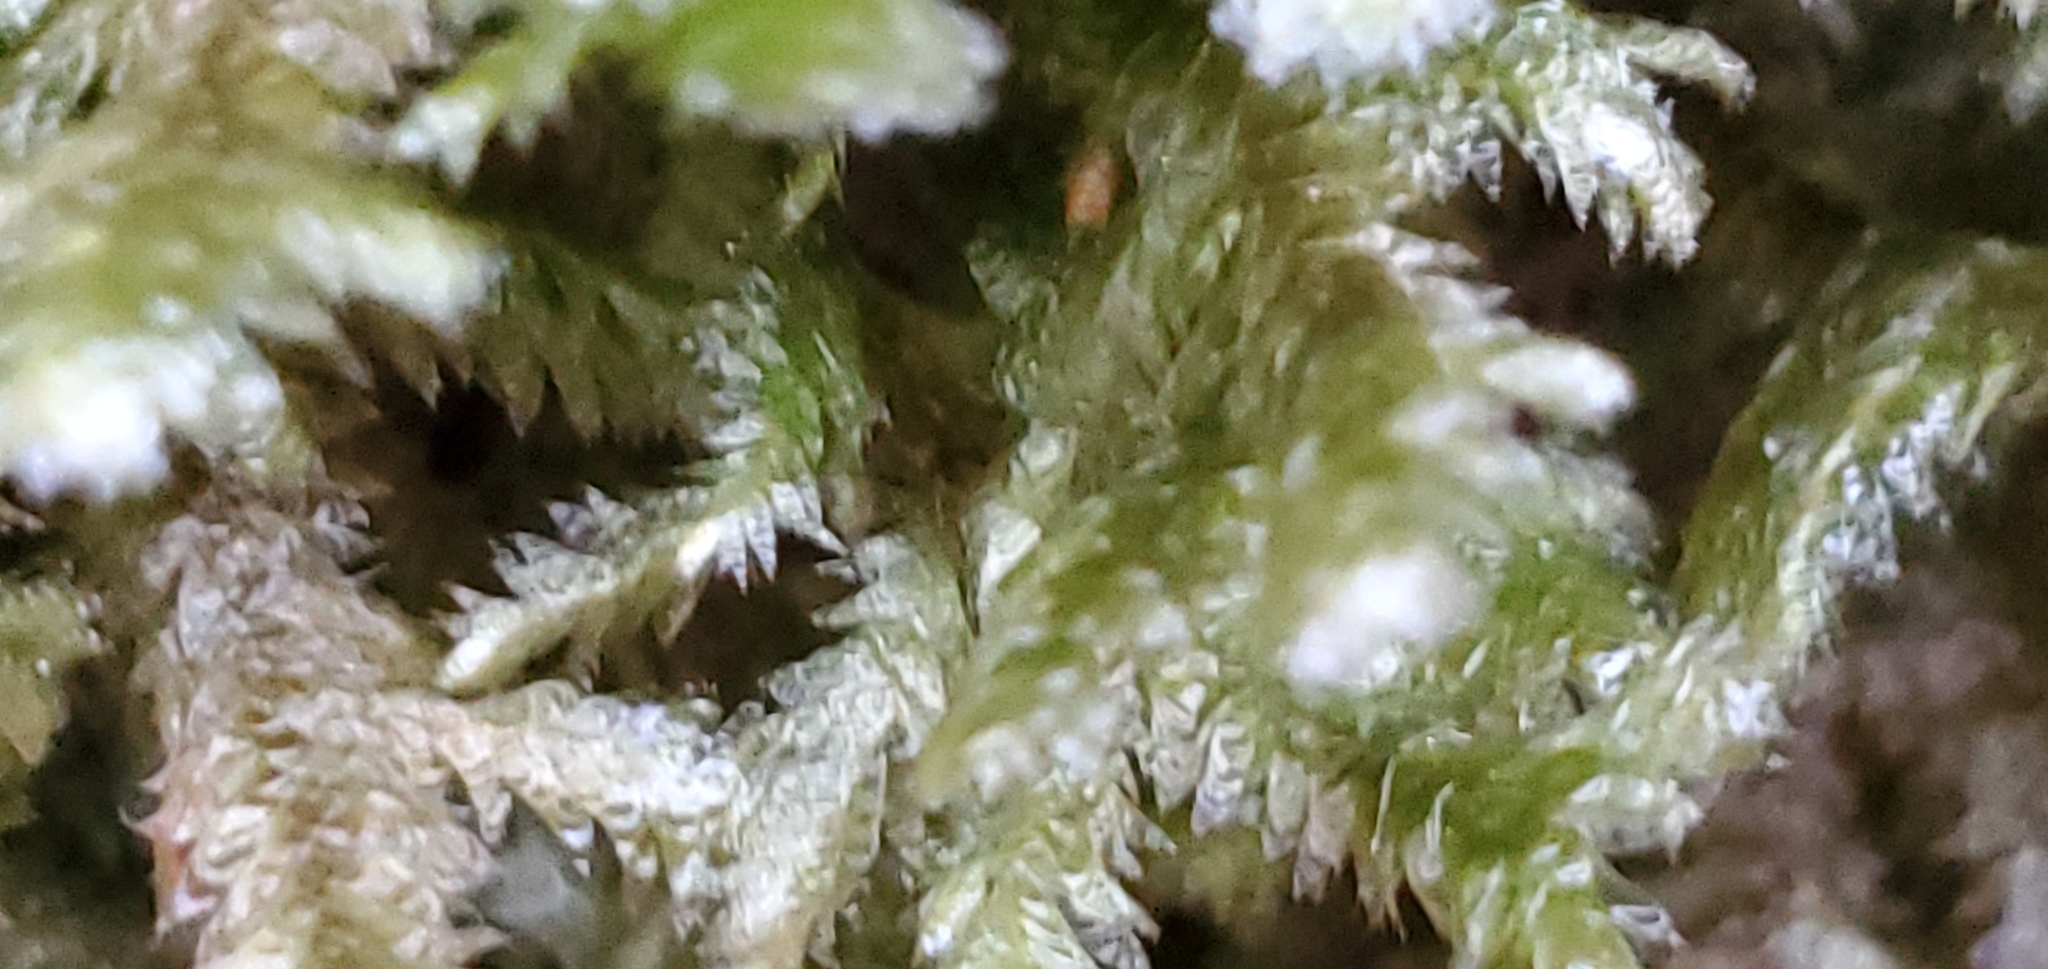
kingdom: Plantae
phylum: Bryophyta
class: Bryopsida
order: Hypnales
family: Neckeraceae
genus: Neckera
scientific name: Neckera pennata
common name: Feathery neckera
